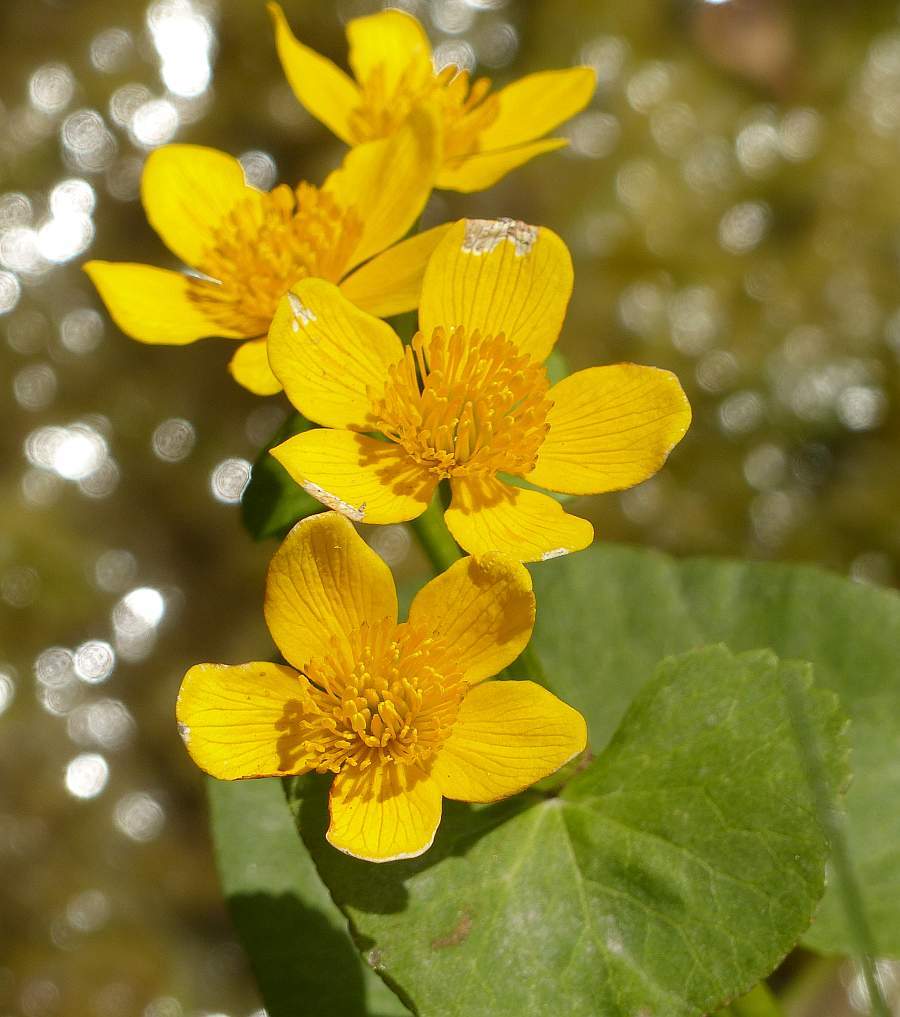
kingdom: Plantae
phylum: Tracheophyta
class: Magnoliopsida
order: Ranunculales
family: Ranunculaceae
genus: Caltha
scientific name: Caltha palustris
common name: Marsh marigold
